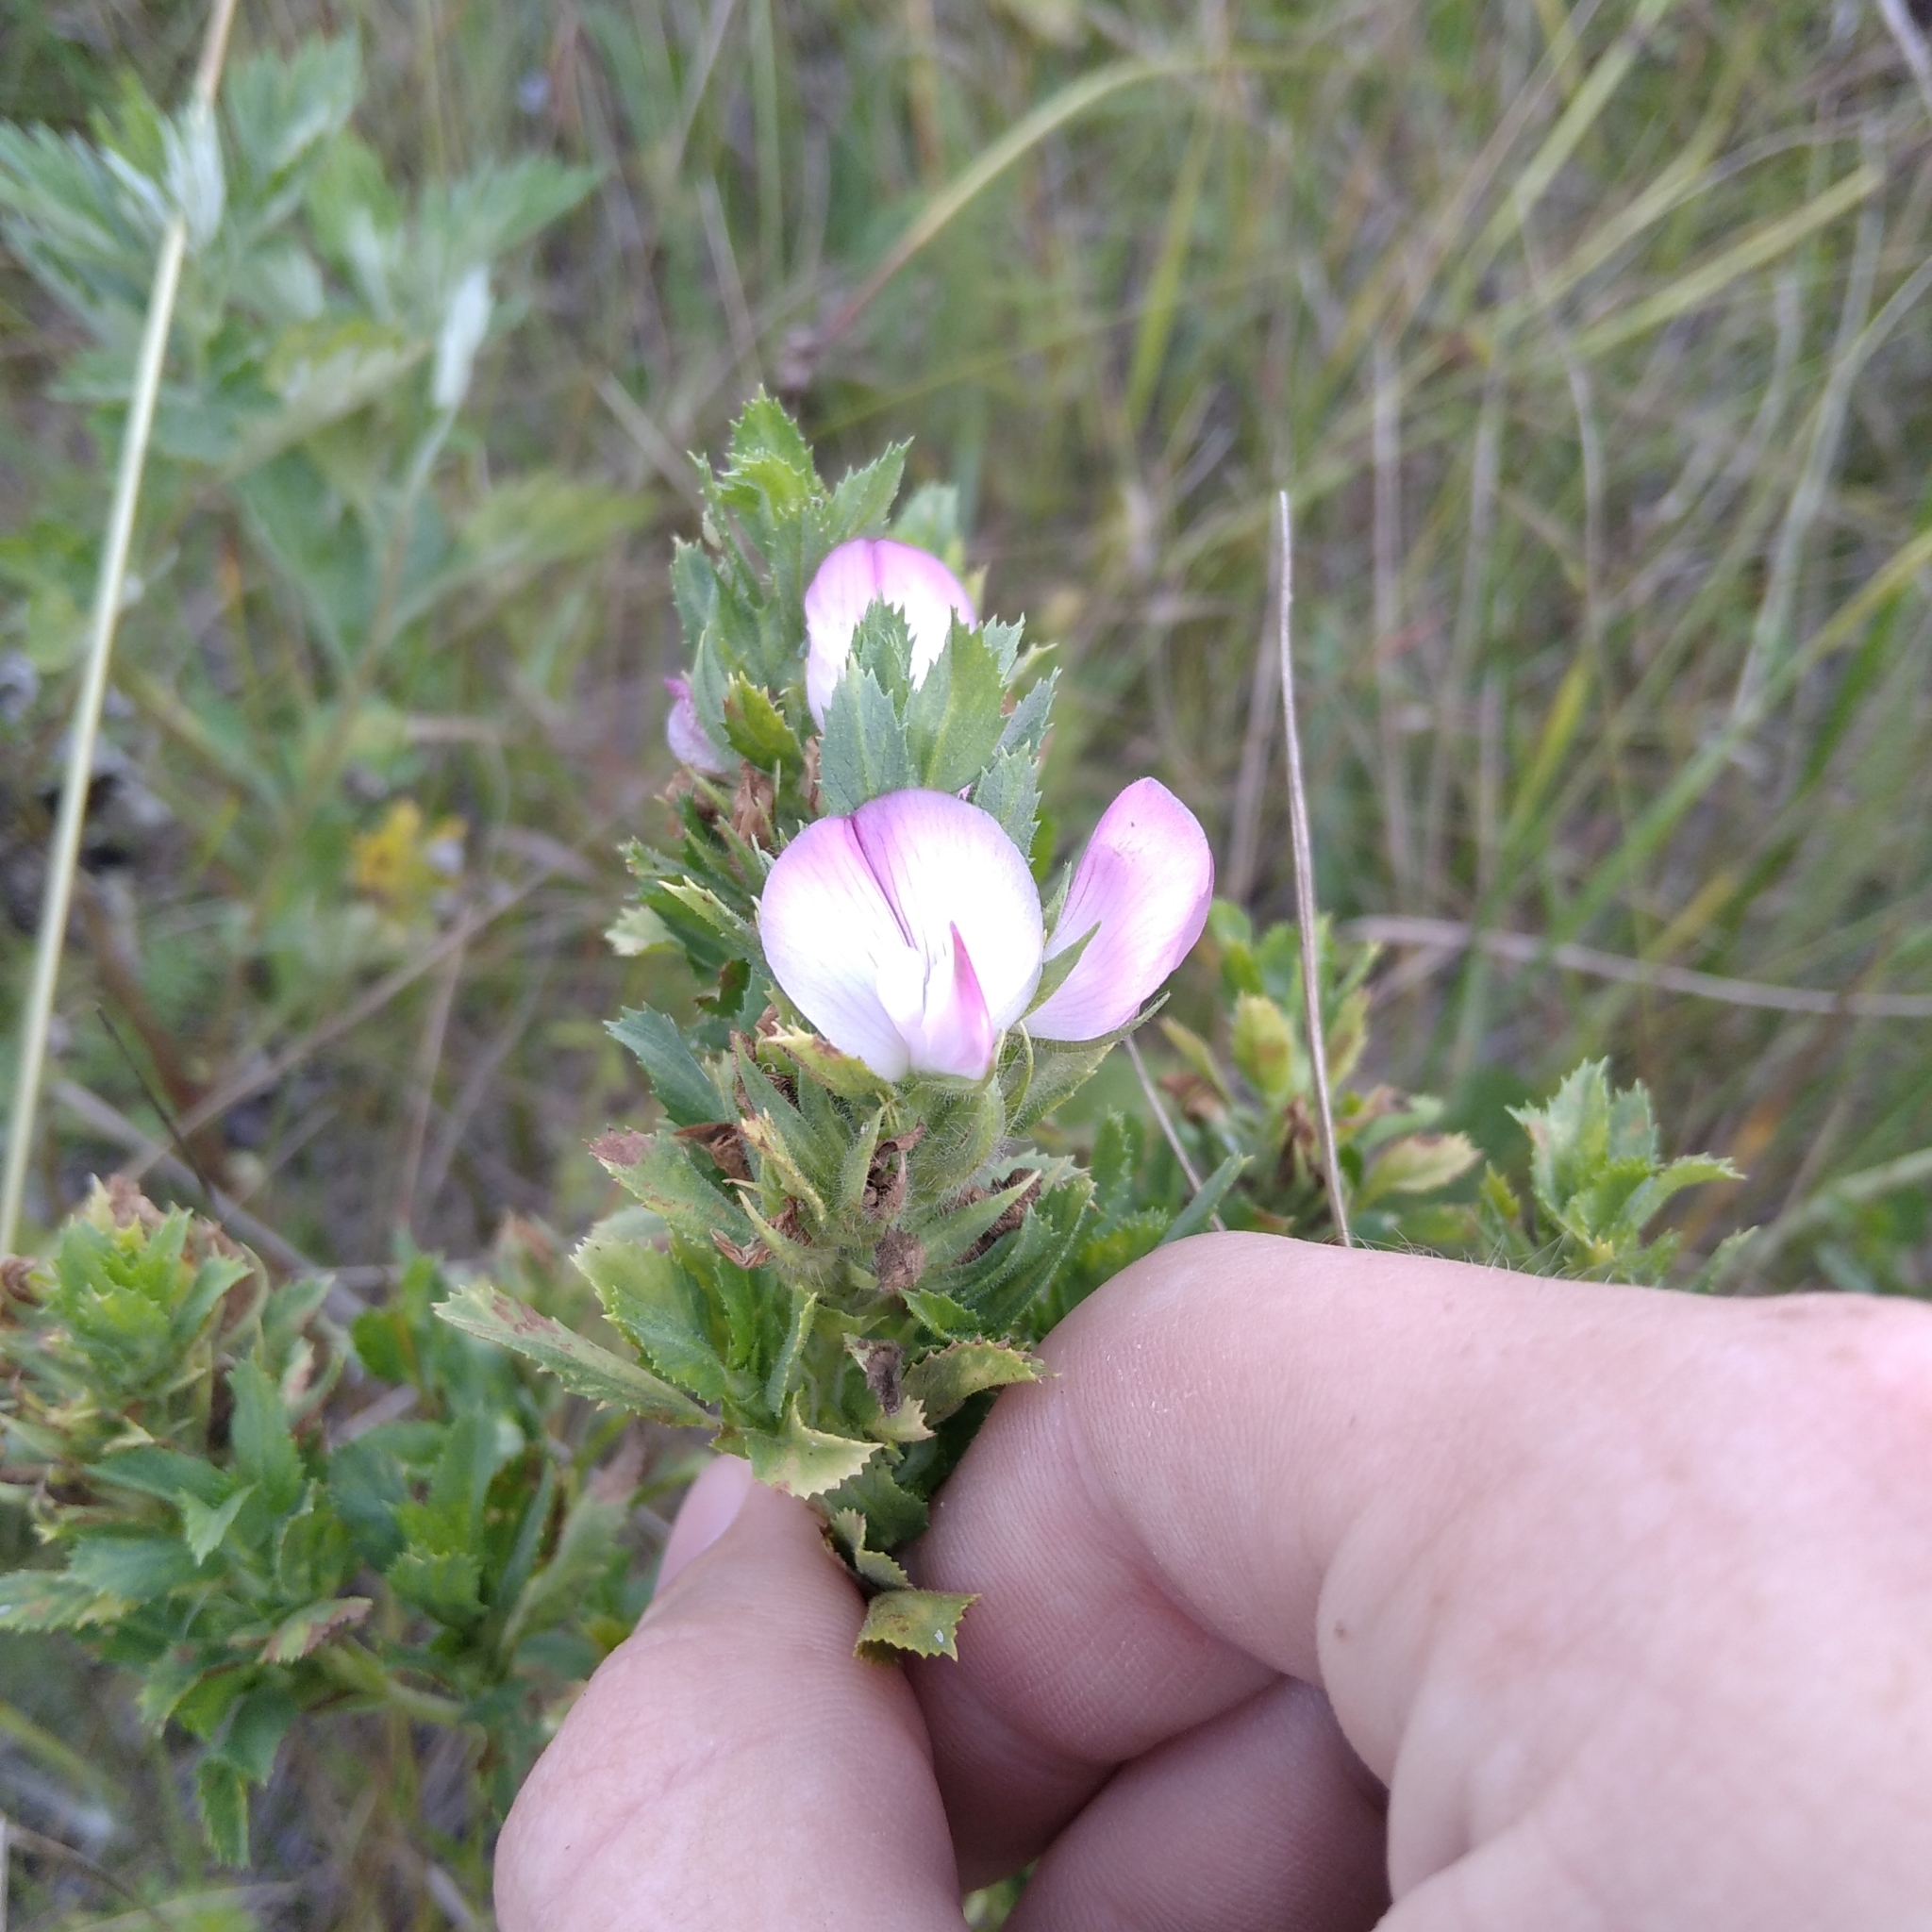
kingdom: Plantae
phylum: Tracheophyta
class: Magnoliopsida
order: Fabales
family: Fabaceae
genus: Ononis
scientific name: Ononis arvensis
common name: Field restharrow
